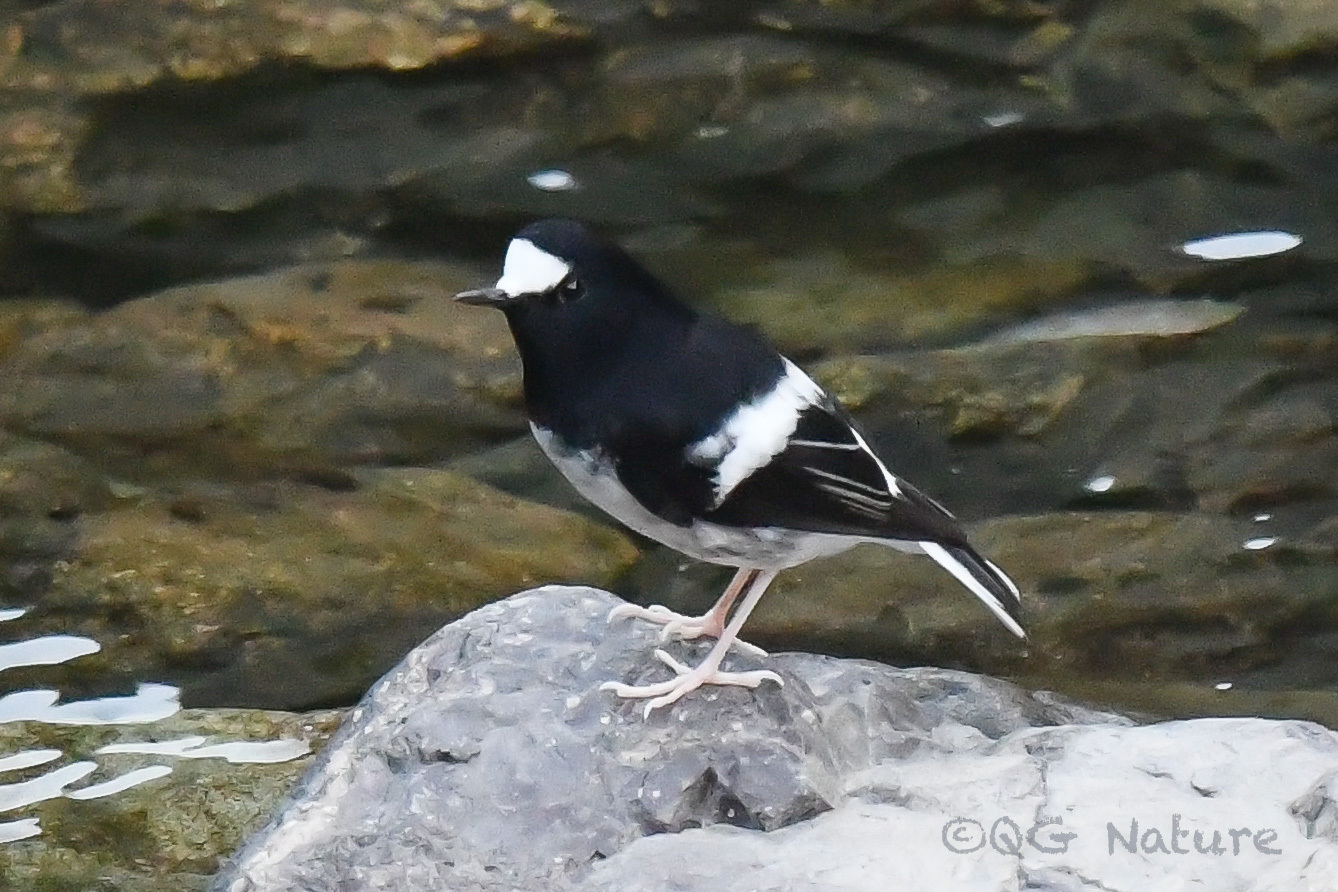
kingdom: Animalia
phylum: Chordata
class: Aves
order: Passeriformes
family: Muscicapidae
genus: Enicurus
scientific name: Enicurus scouleri
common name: Little forktail
